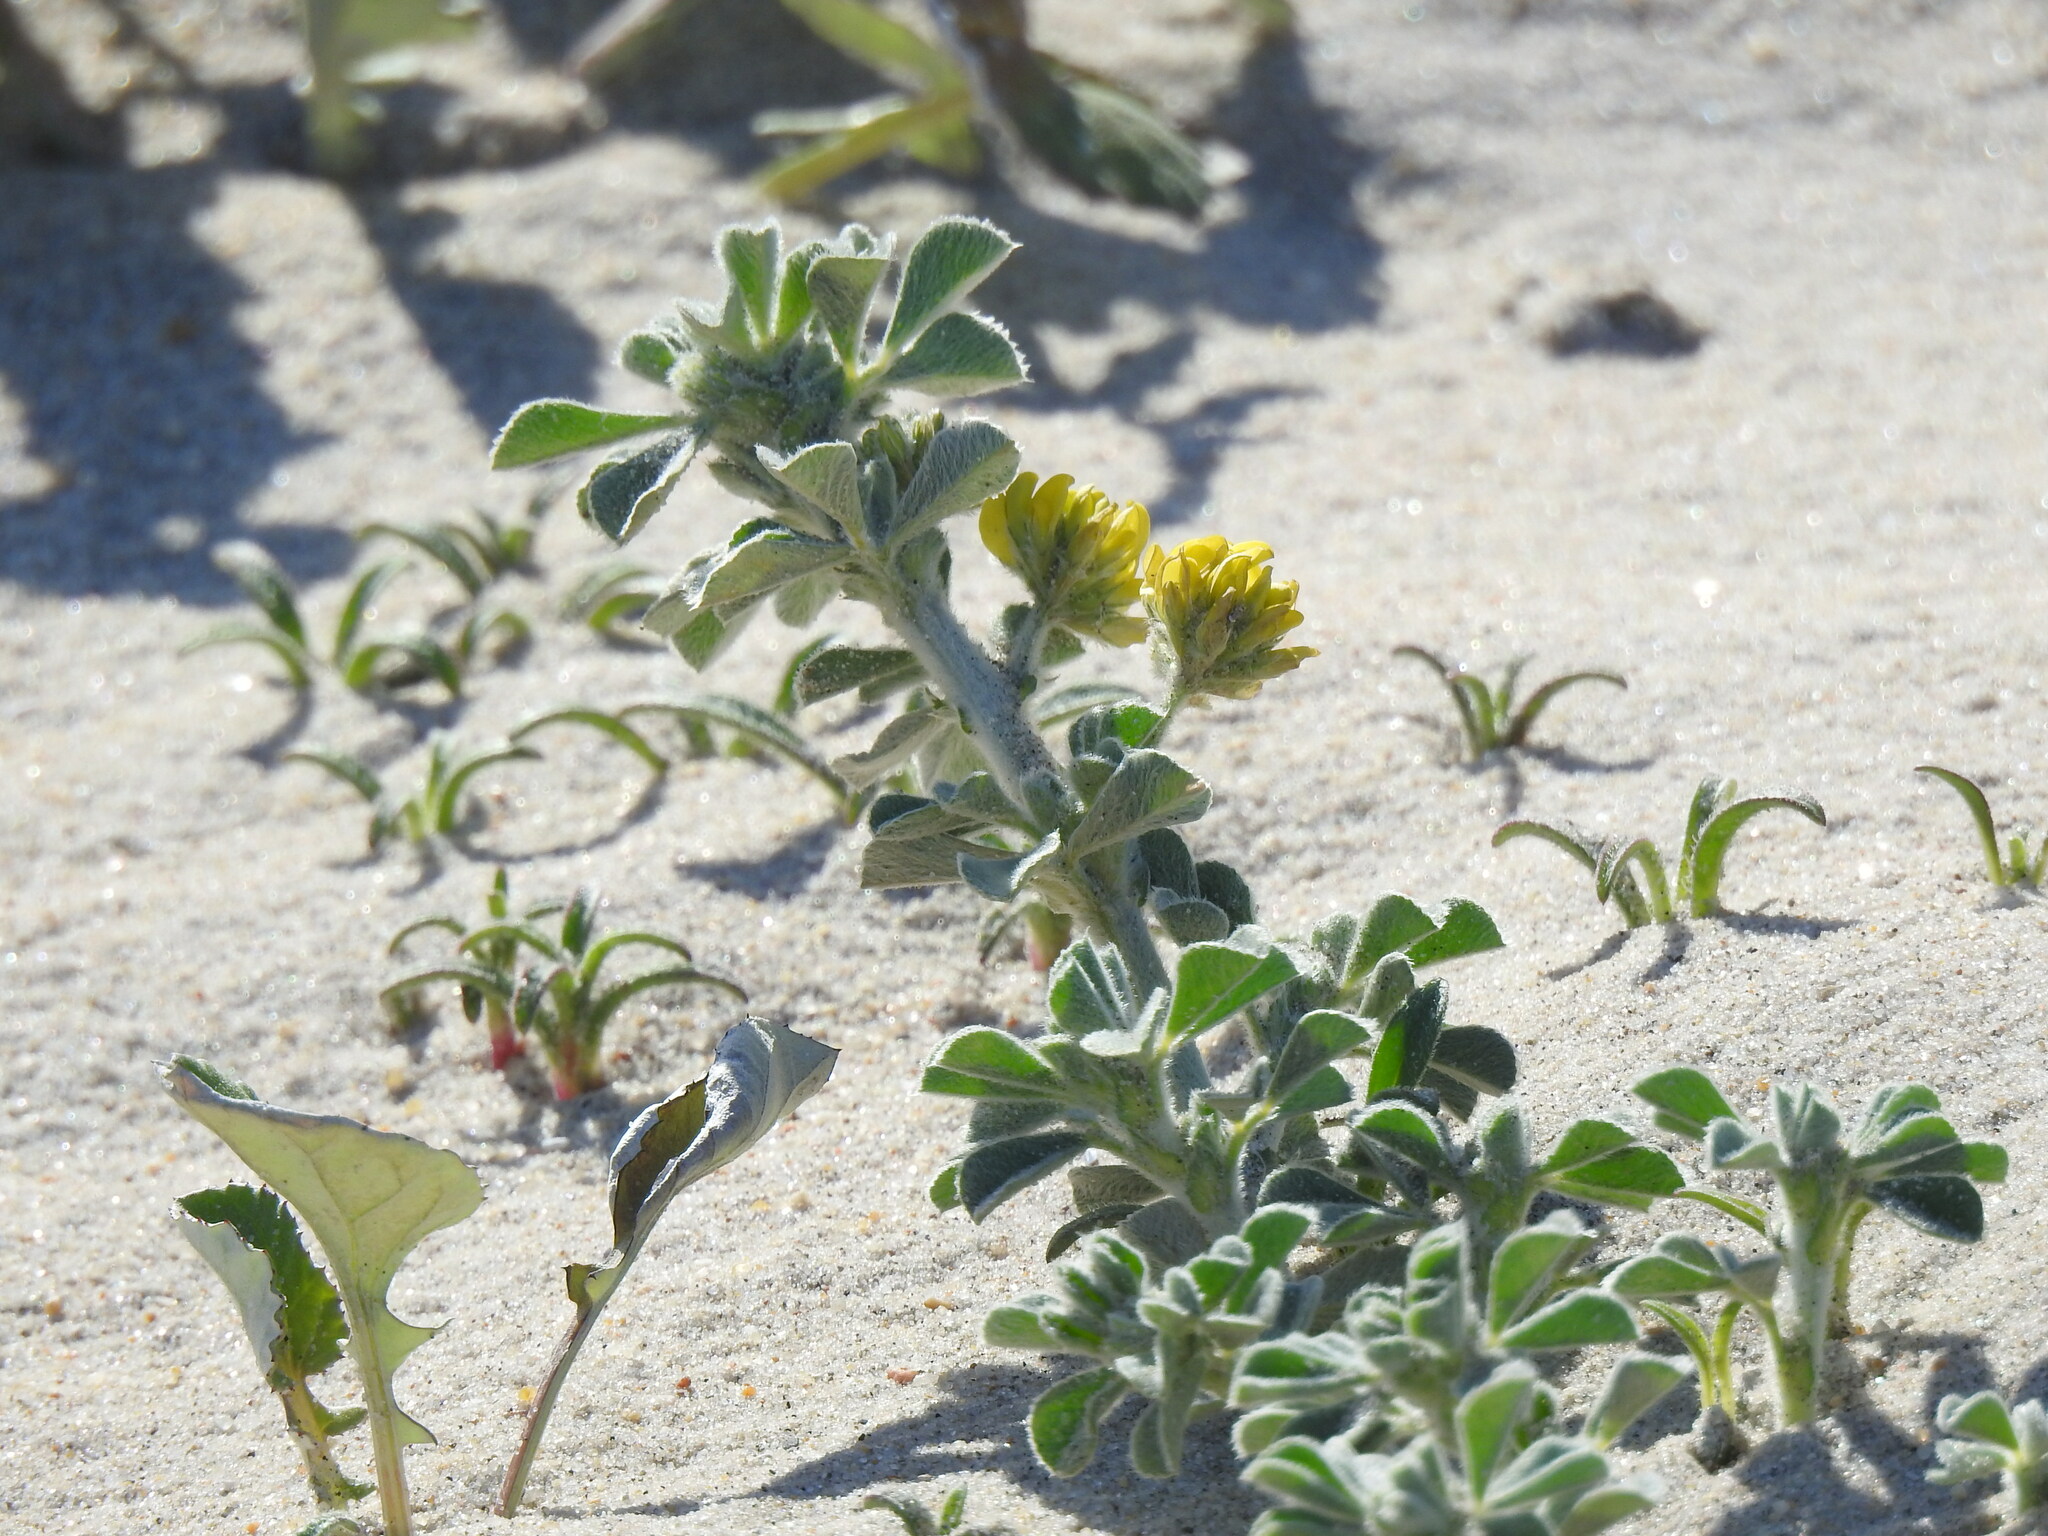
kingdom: Plantae
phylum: Tracheophyta
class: Magnoliopsida
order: Fabales
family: Fabaceae
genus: Medicago
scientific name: Medicago marina
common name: Sea medick
